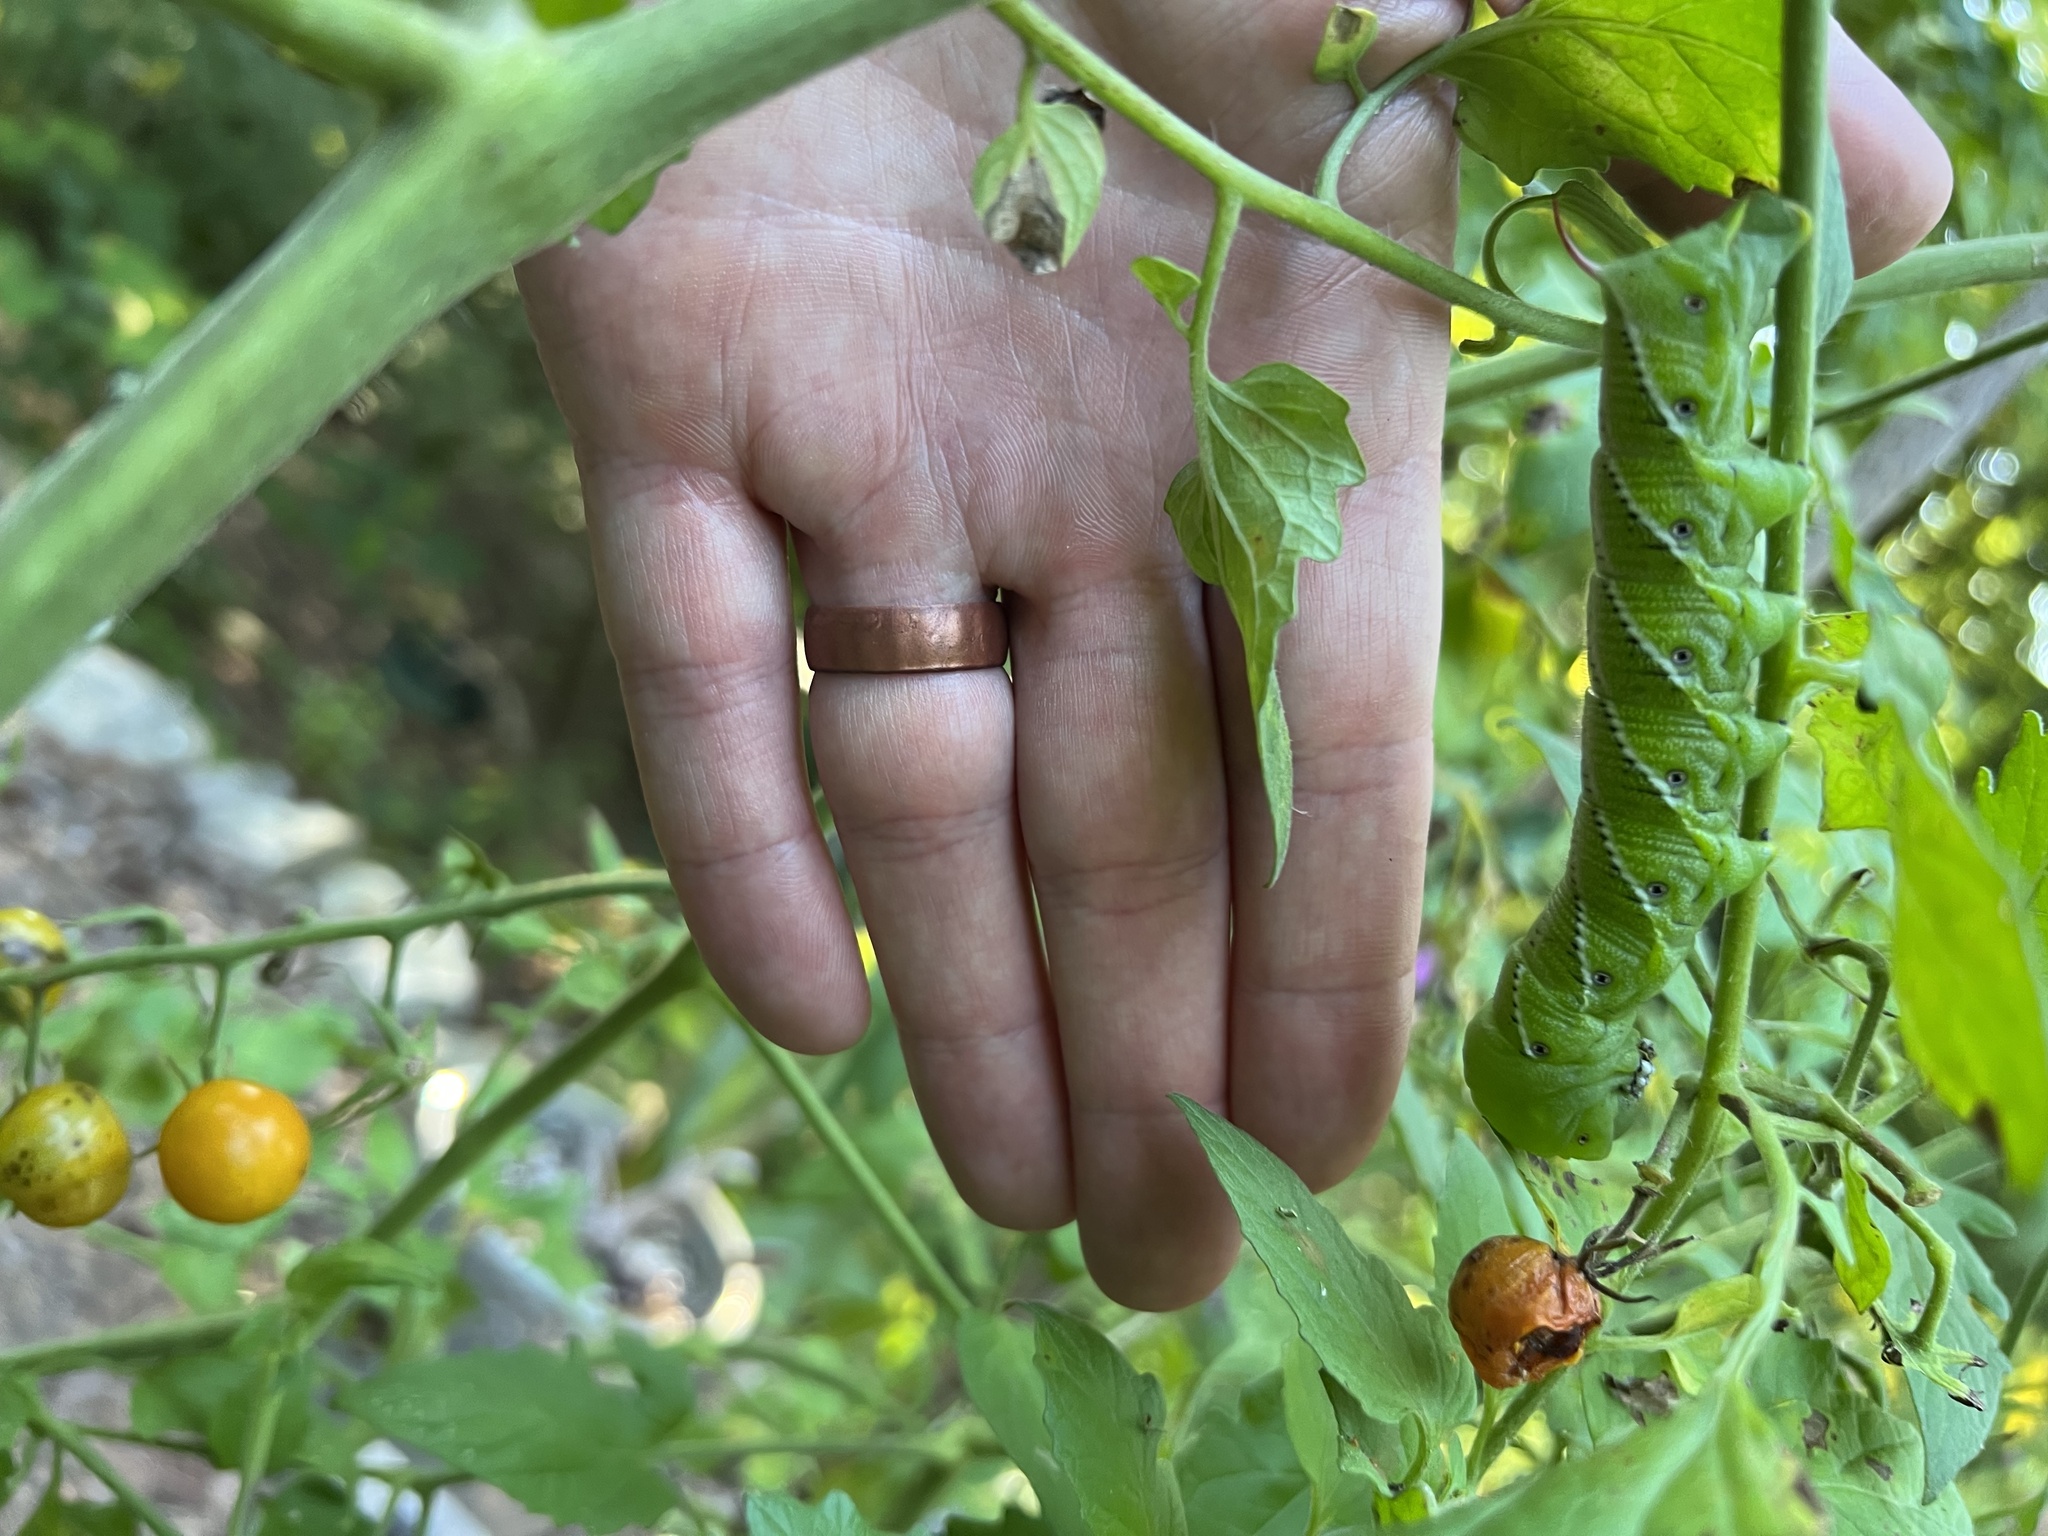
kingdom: Animalia
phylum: Arthropoda
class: Insecta
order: Lepidoptera
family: Sphingidae
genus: Manduca
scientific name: Manduca sexta
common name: Carolina sphinx
